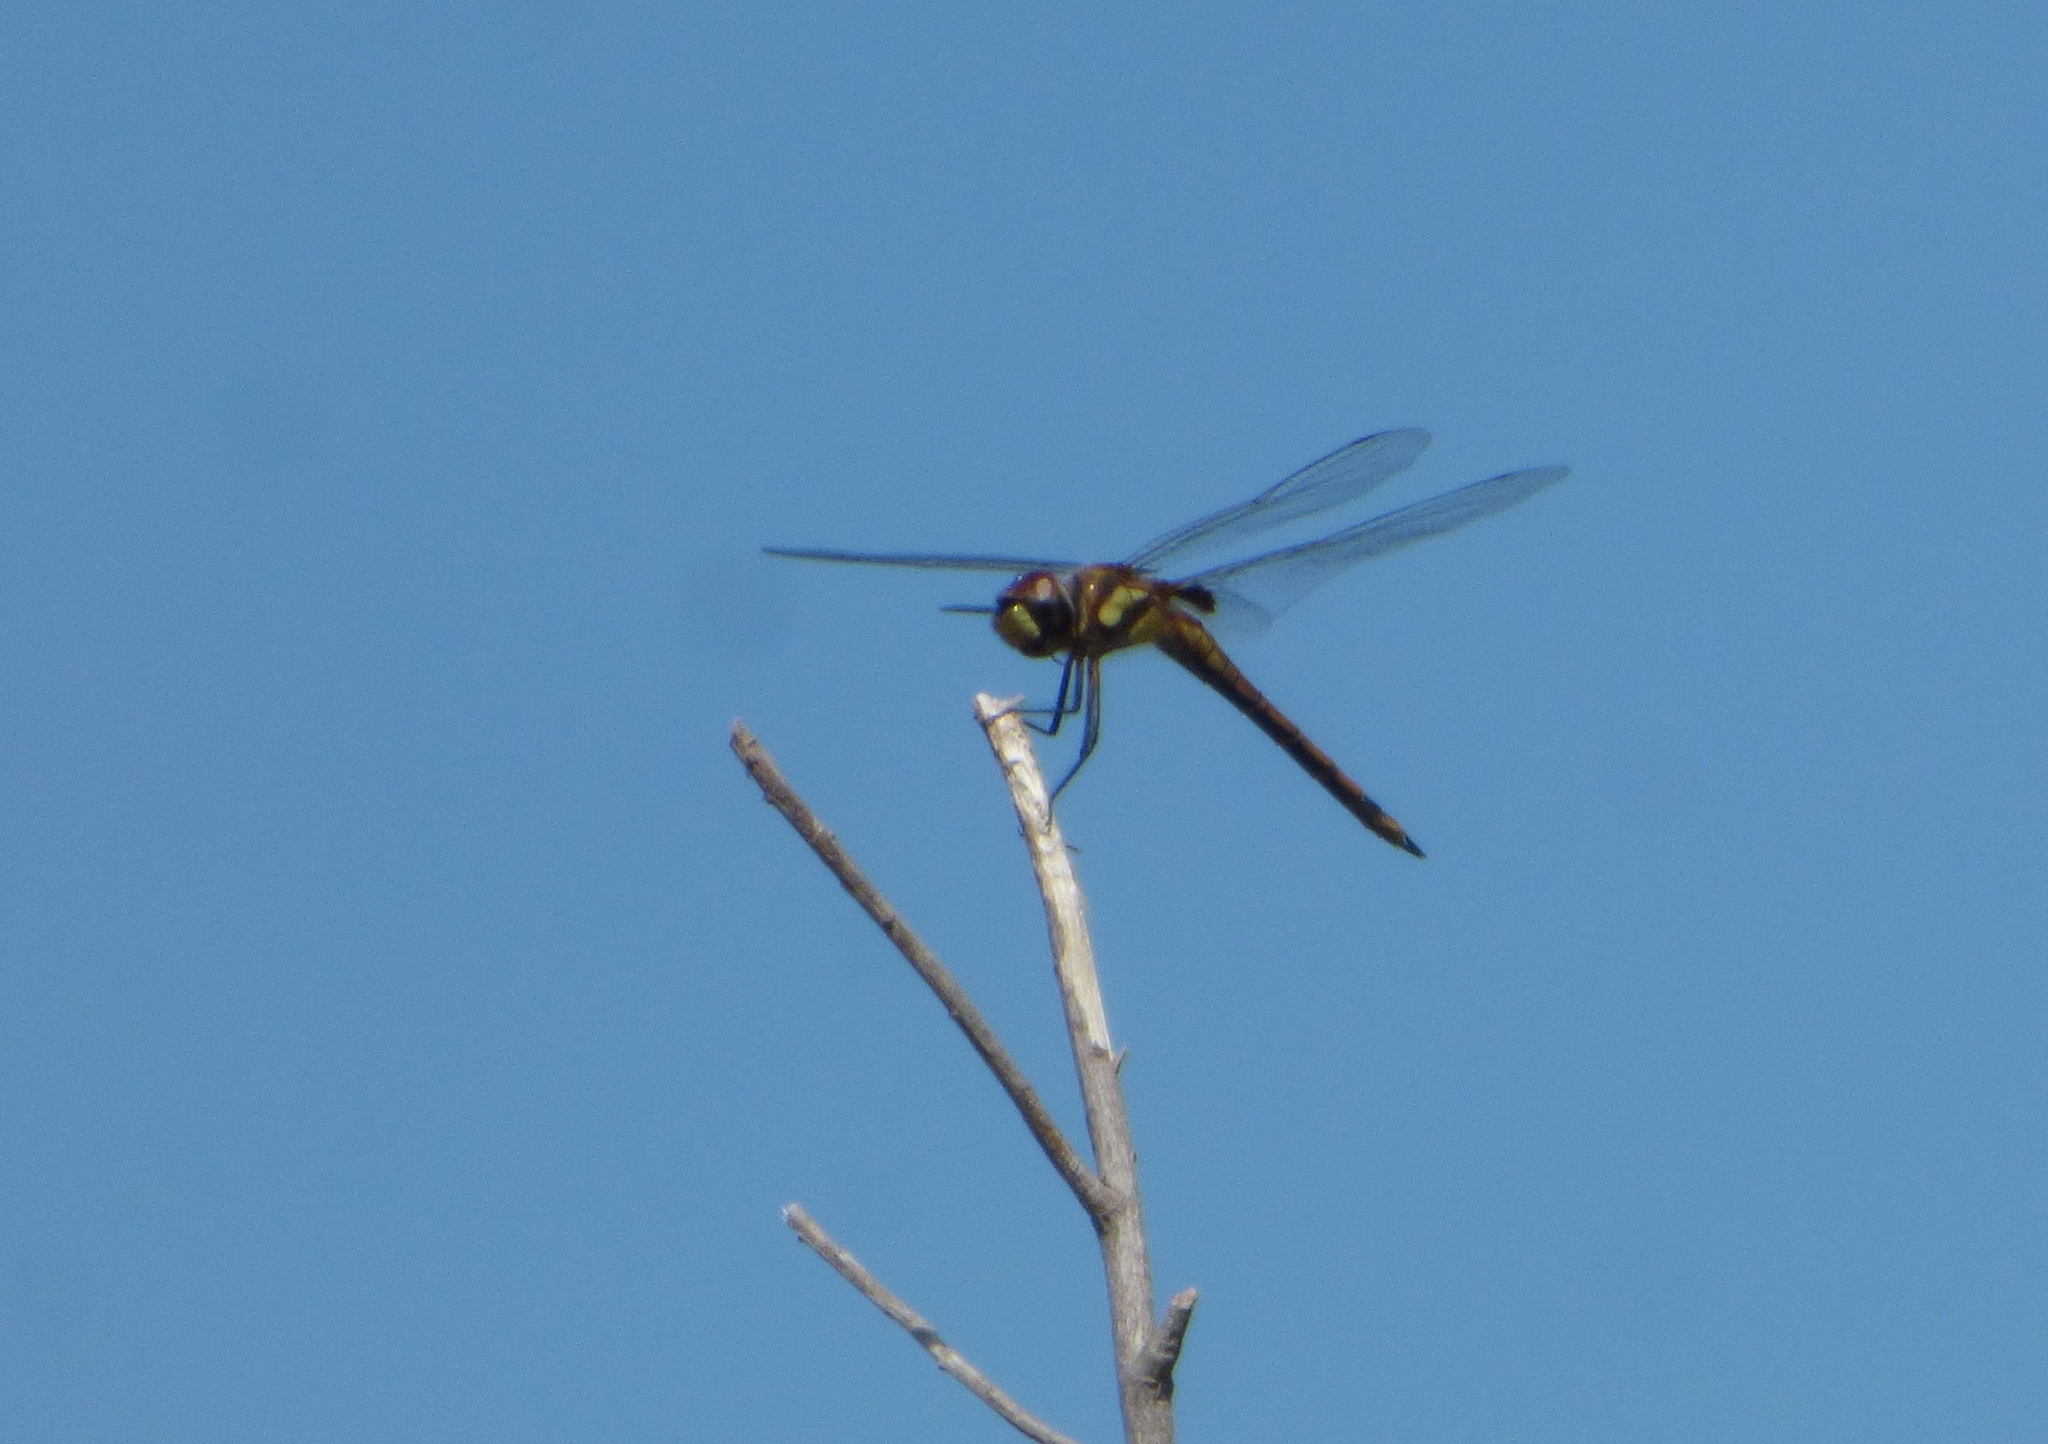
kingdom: Animalia
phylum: Arthropoda
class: Insecta
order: Odonata
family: Libellulidae
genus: Tramea
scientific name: Tramea cophysa
